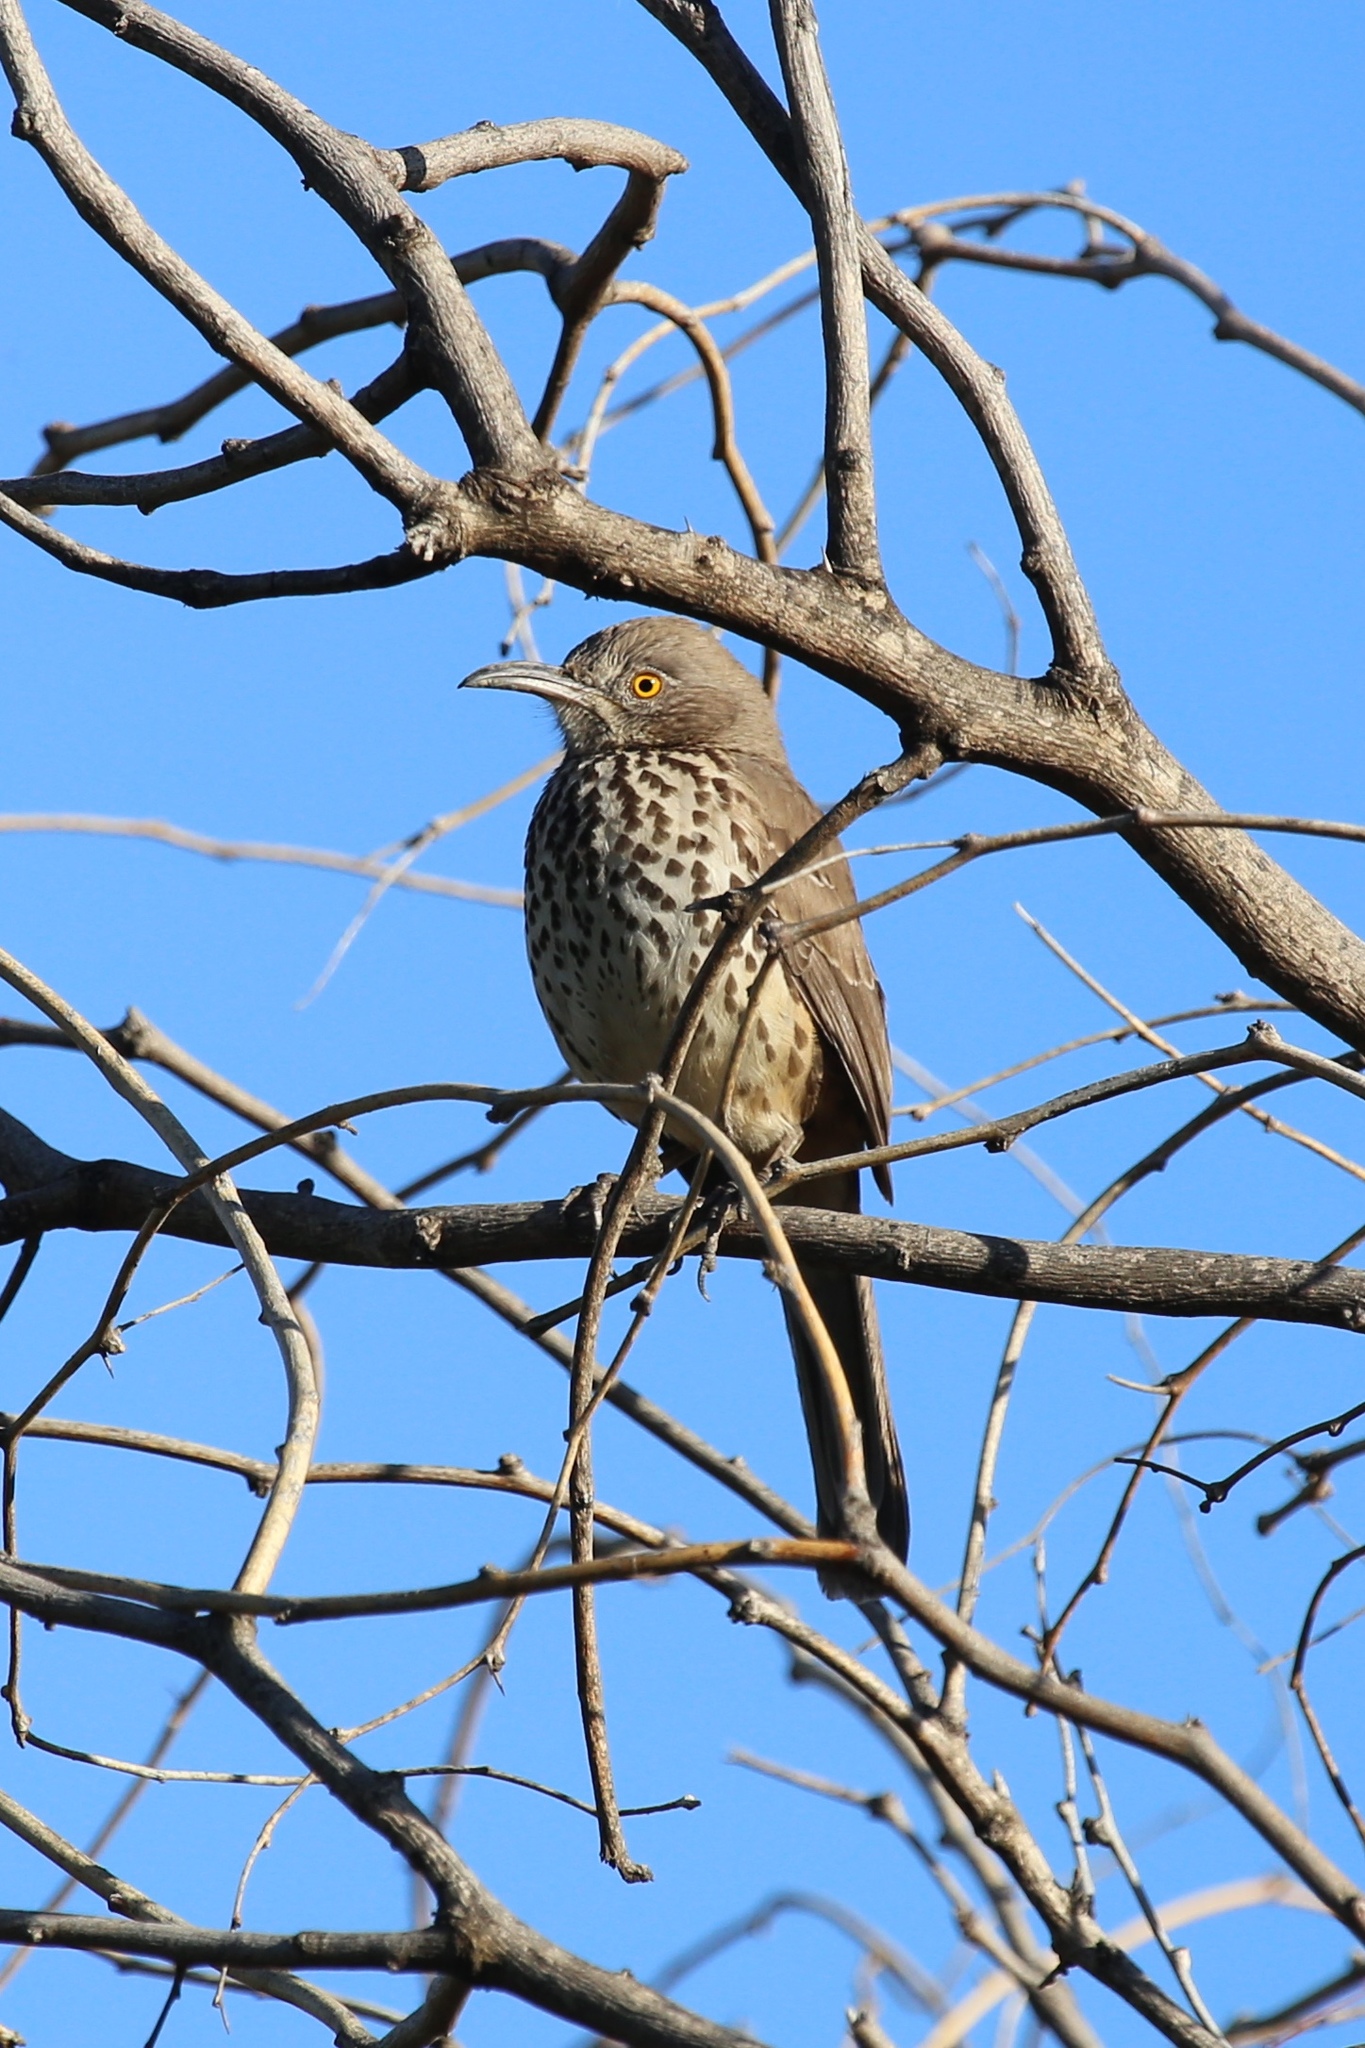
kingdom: Animalia
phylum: Chordata
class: Aves
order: Passeriformes
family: Mimidae
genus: Toxostoma
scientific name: Toxostoma cinereum
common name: Gray thrasher
